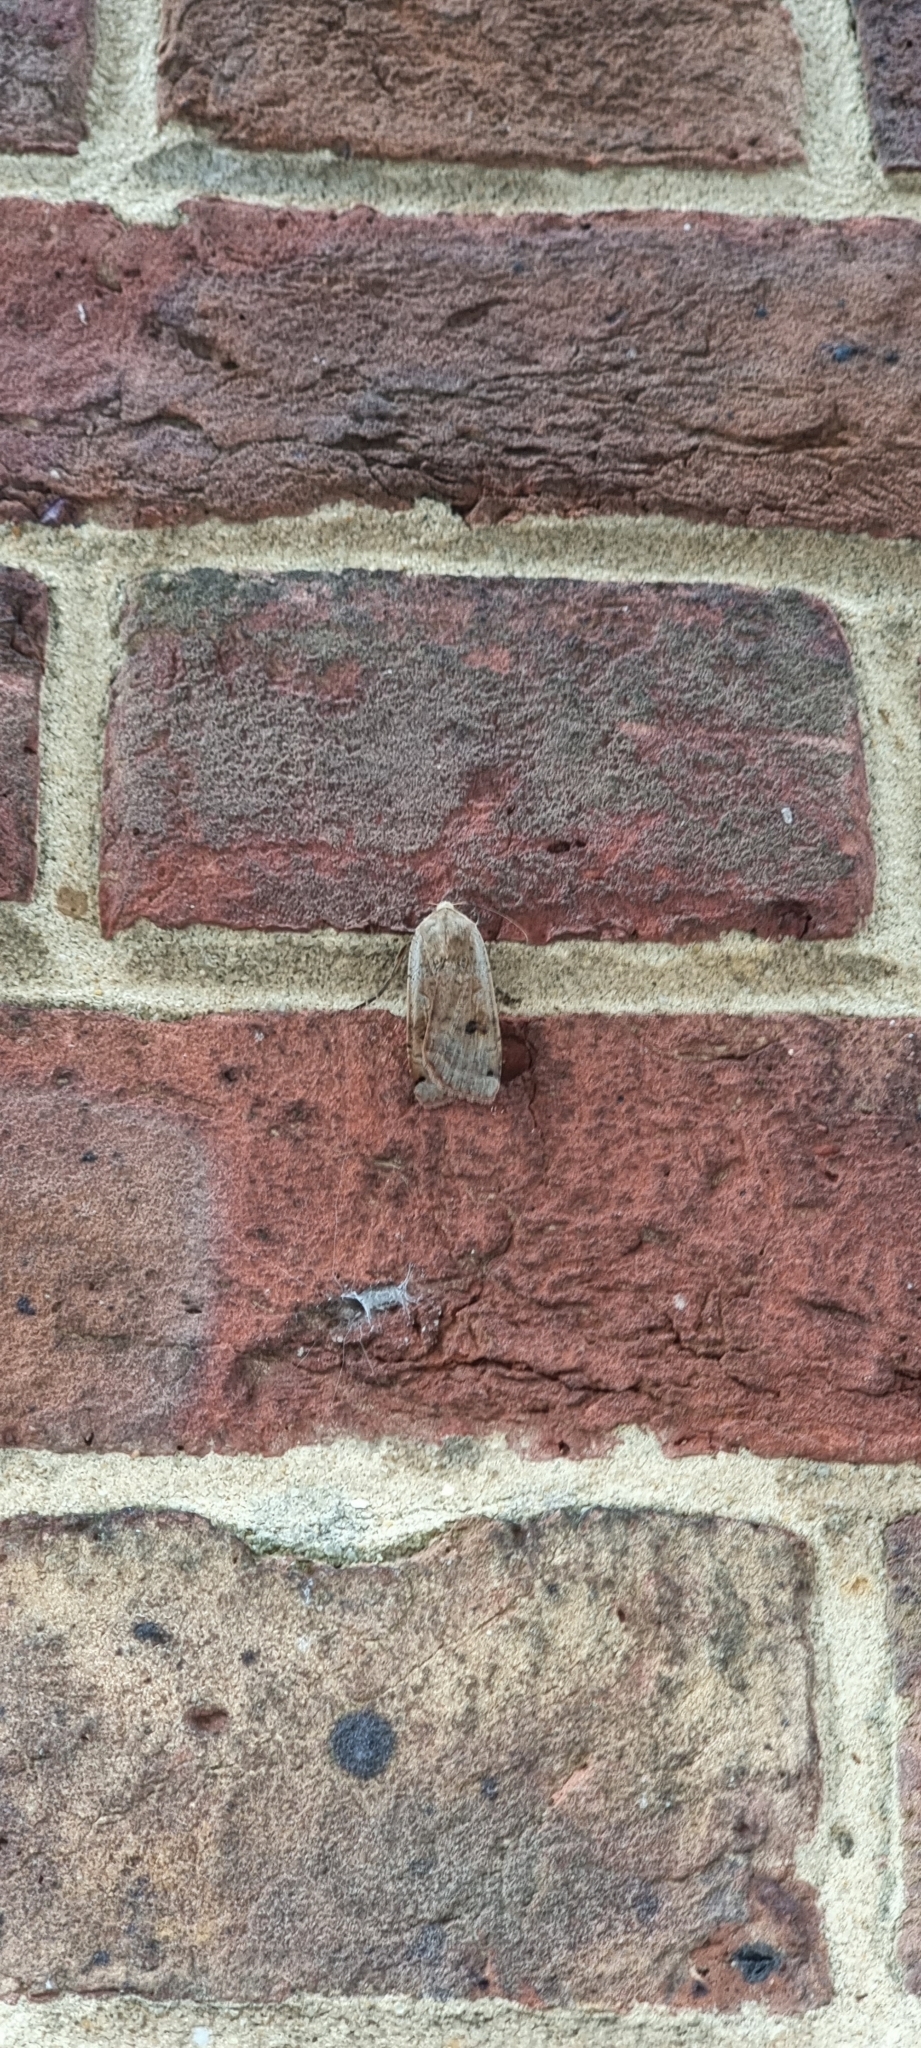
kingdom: Animalia
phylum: Arthropoda
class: Insecta
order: Lepidoptera
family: Noctuidae
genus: Noctua
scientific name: Noctua pronuba
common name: Large yellow underwing
